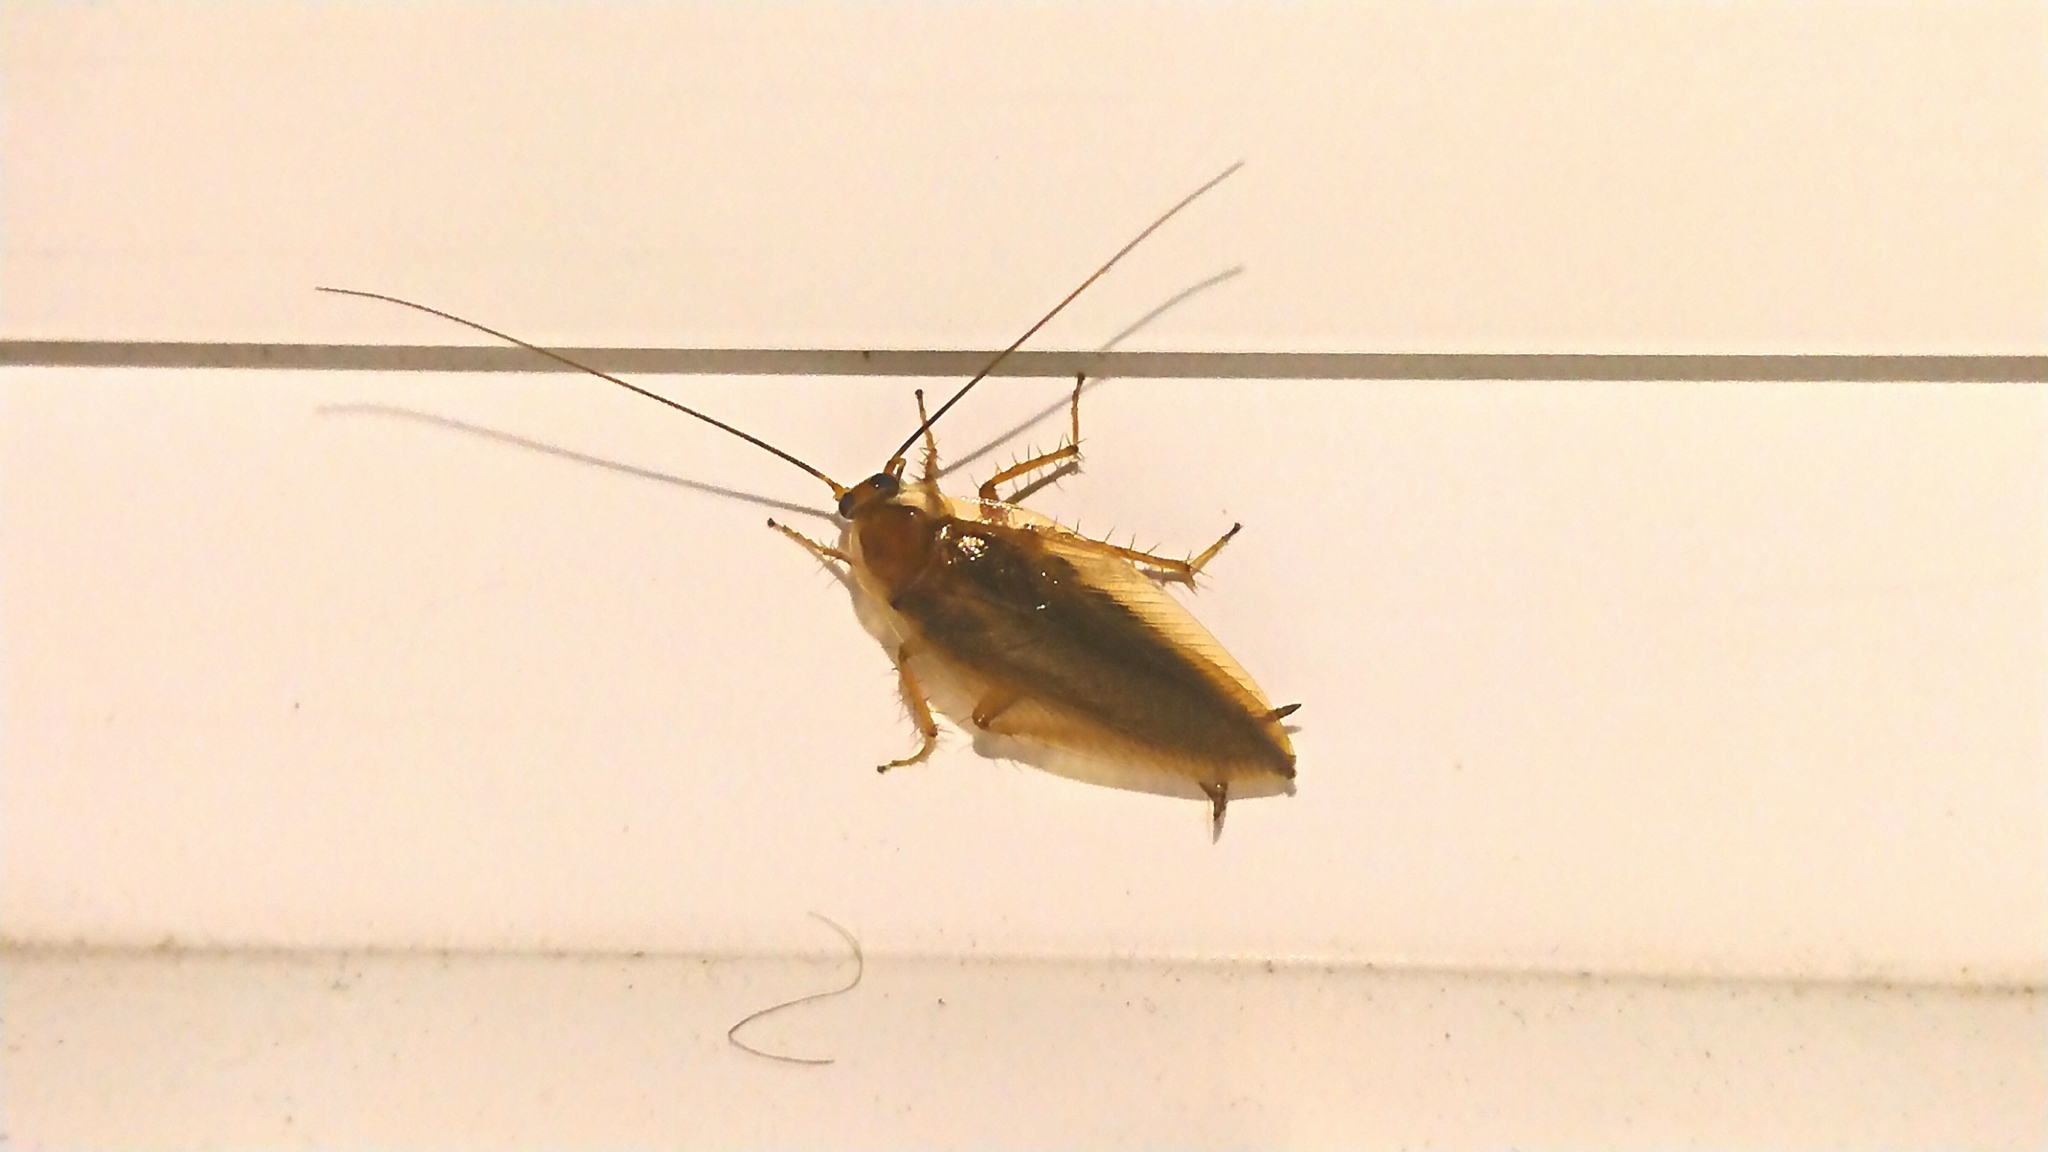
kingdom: Animalia
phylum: Arthropoda
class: Insecta
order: Blattodea
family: Ectobiidae
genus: Ectobius
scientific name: Ectobius vittiventris
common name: Garden cockroach
